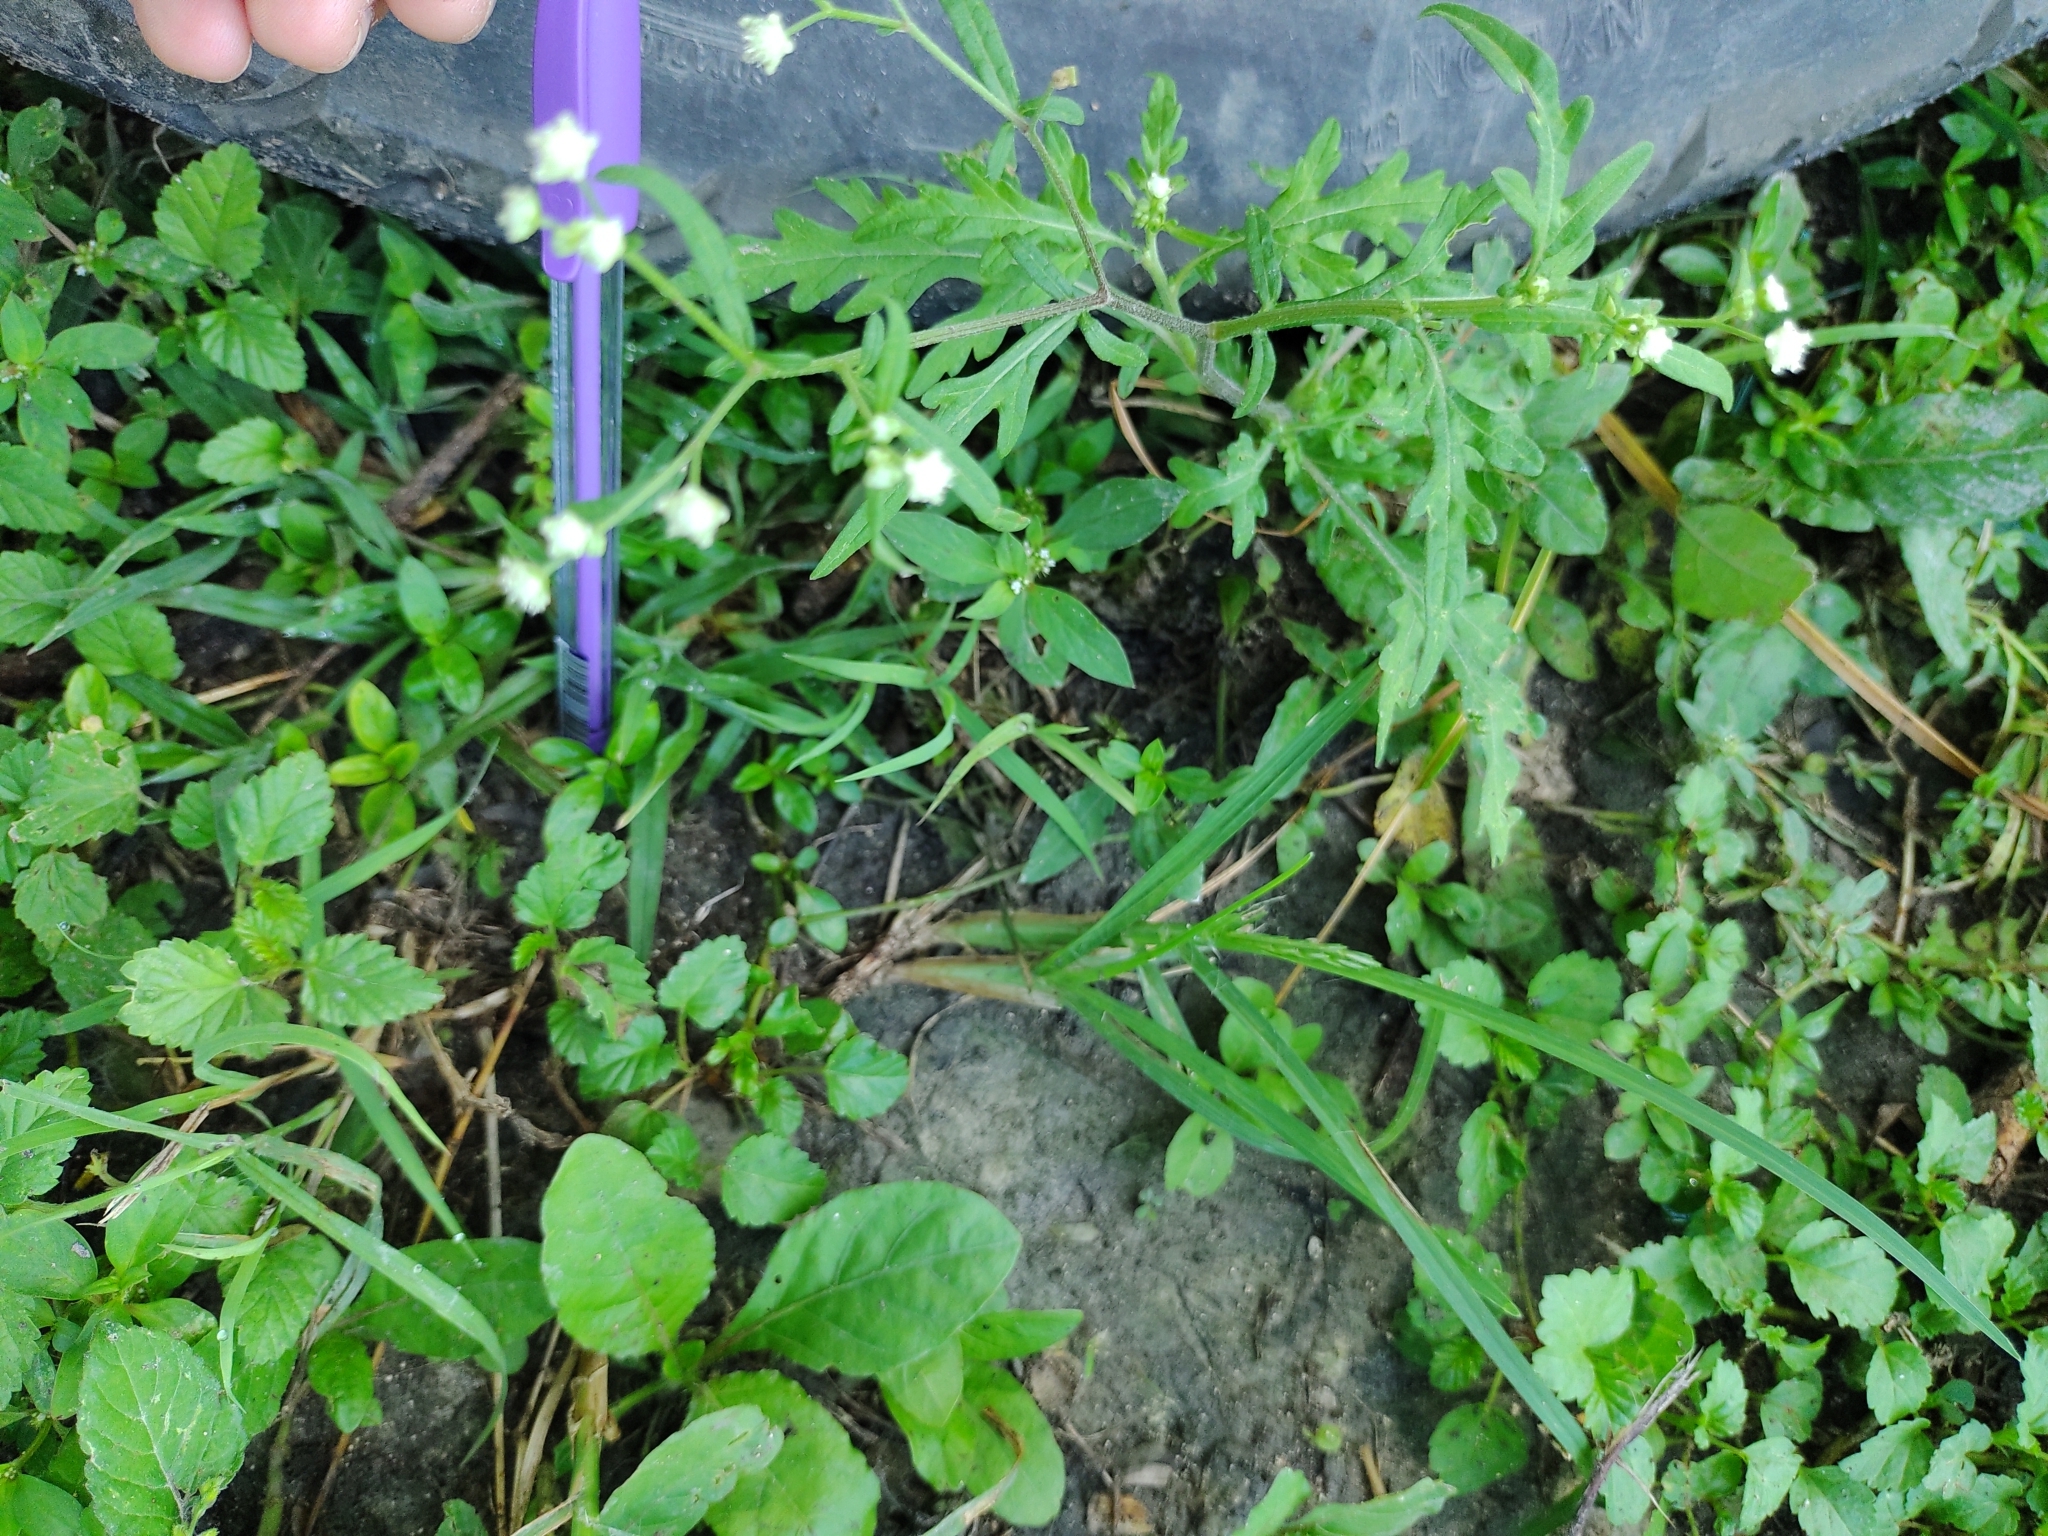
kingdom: Plantae
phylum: Tracheophyta
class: Magnoliopsida
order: Asterales
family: Asteraceae
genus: Parthenium
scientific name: Parthenium hysterophorus
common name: Santa maria feverfew
